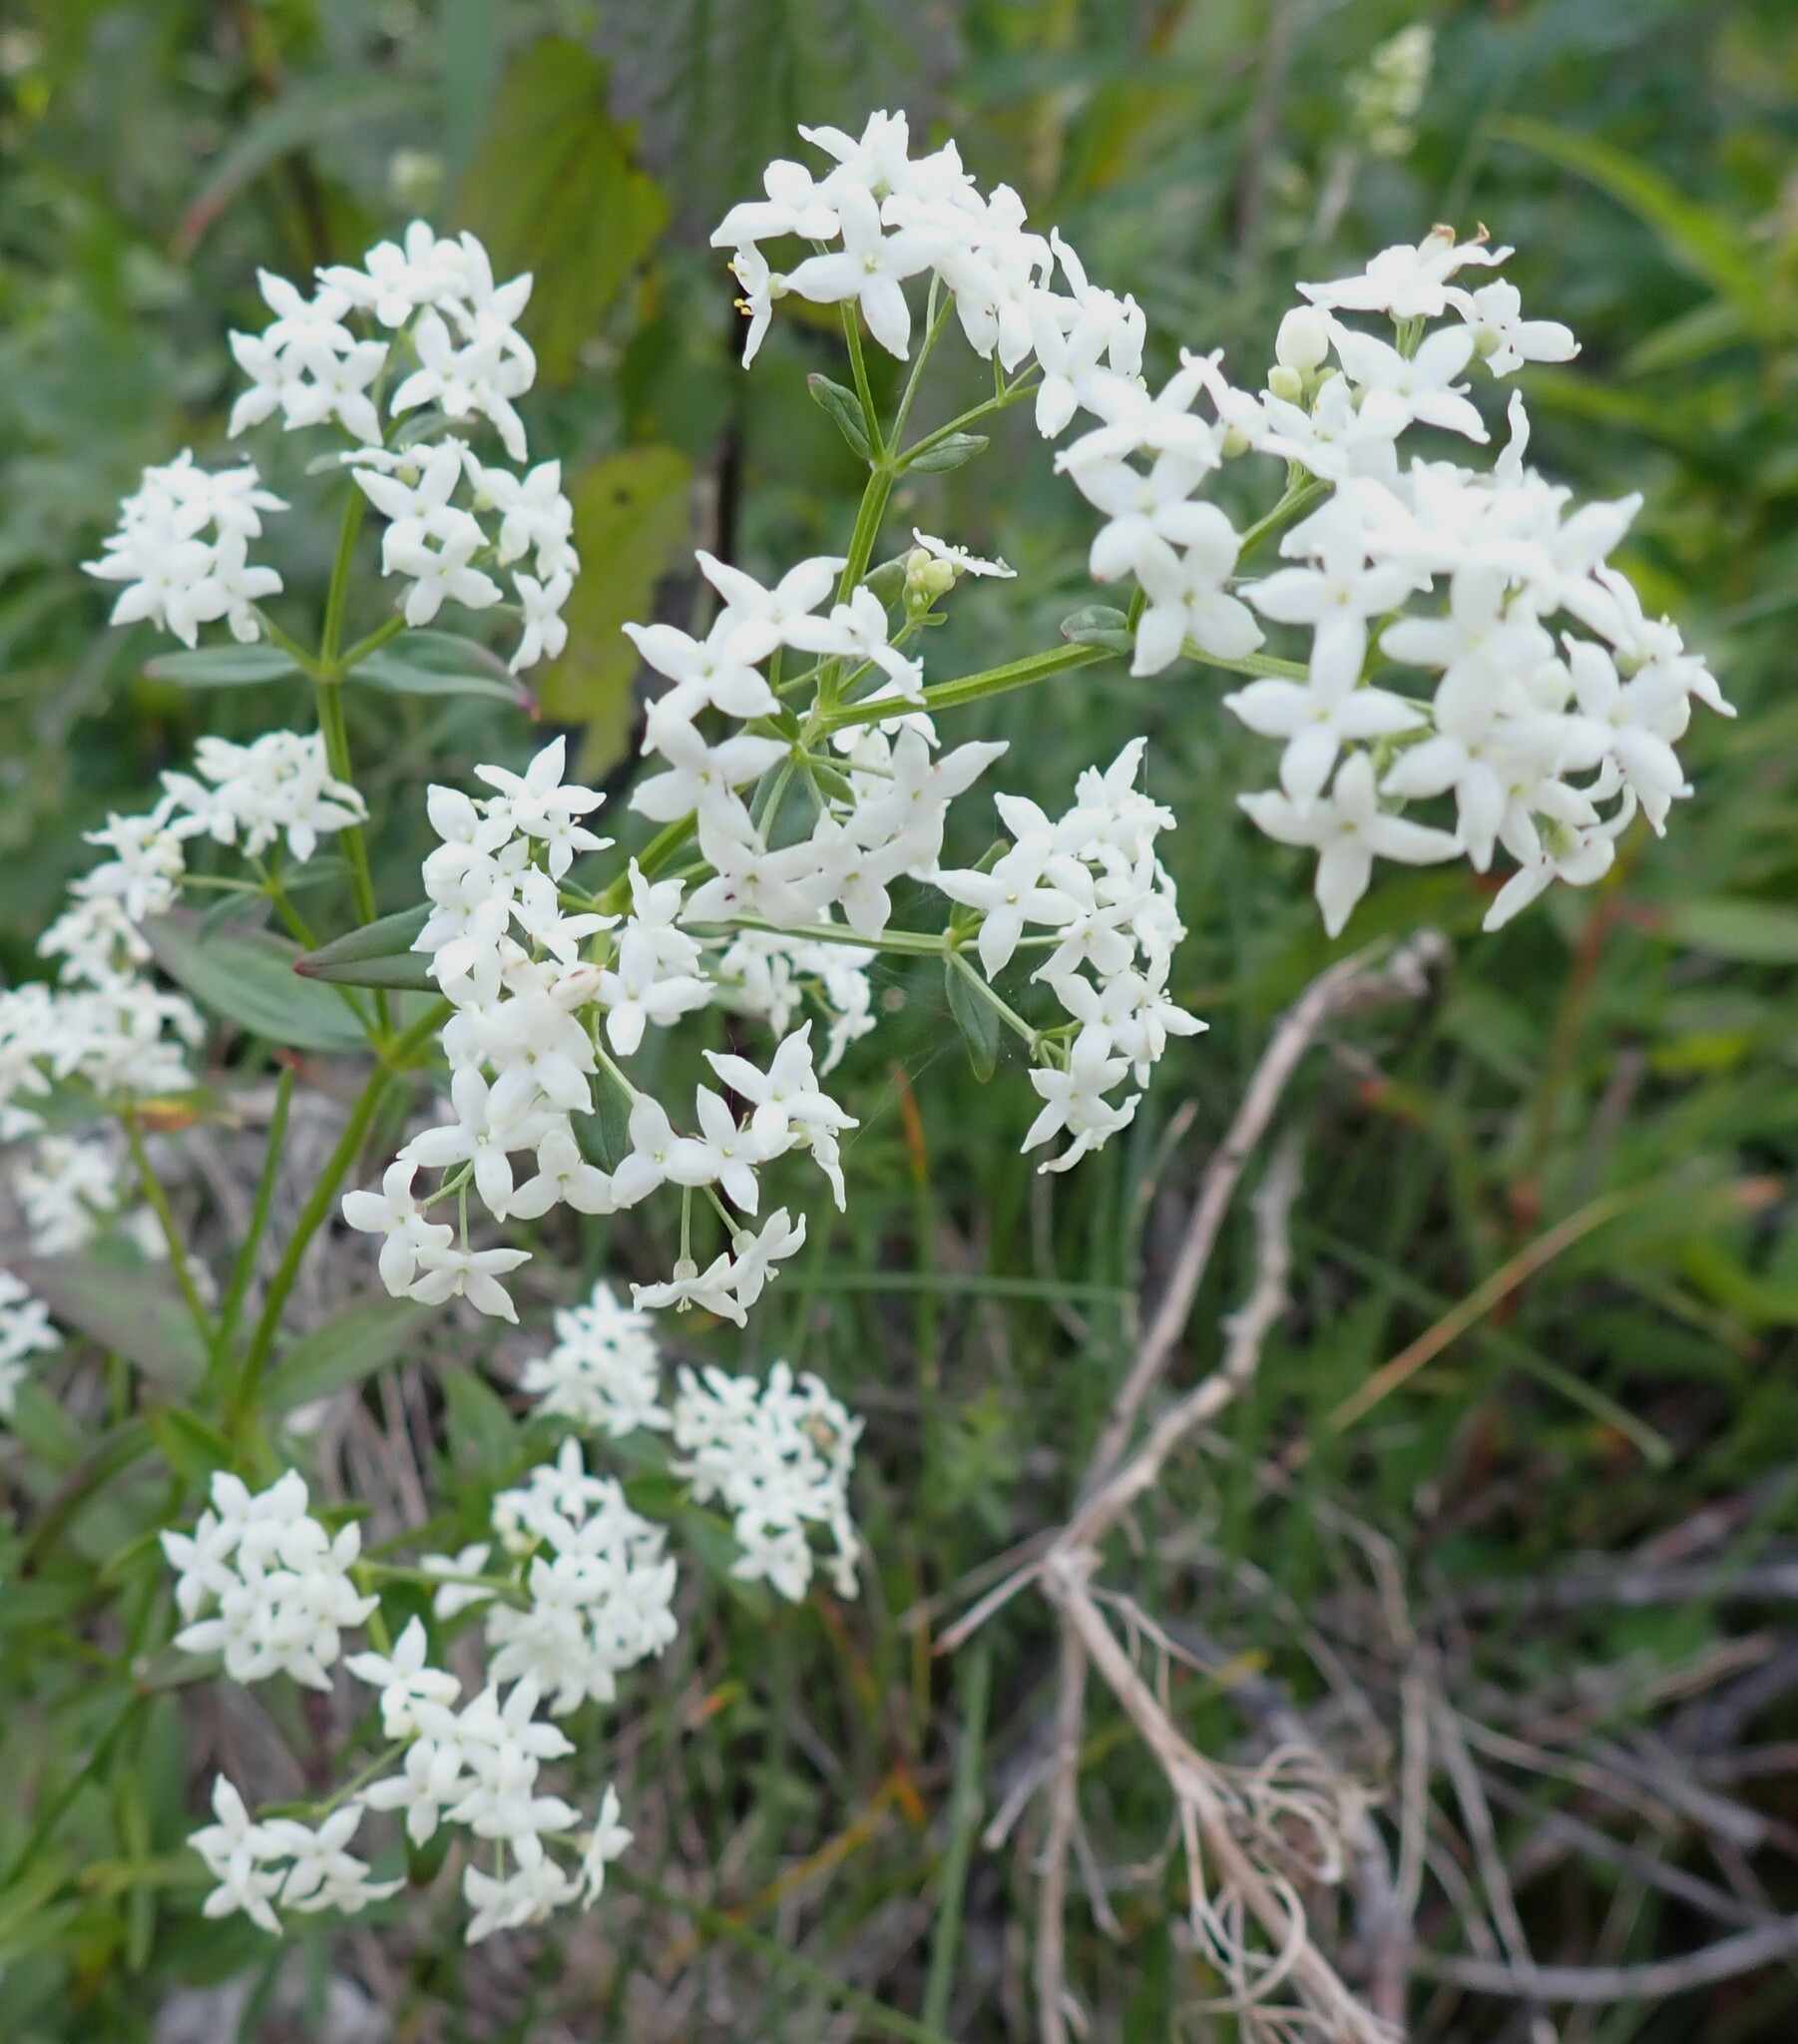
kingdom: Plantae
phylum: Tracheophyta
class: Magnoliopsida
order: Gentianales
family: Rubiaceae
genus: Galium
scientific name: Galium boreale
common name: Northern bedstraw
